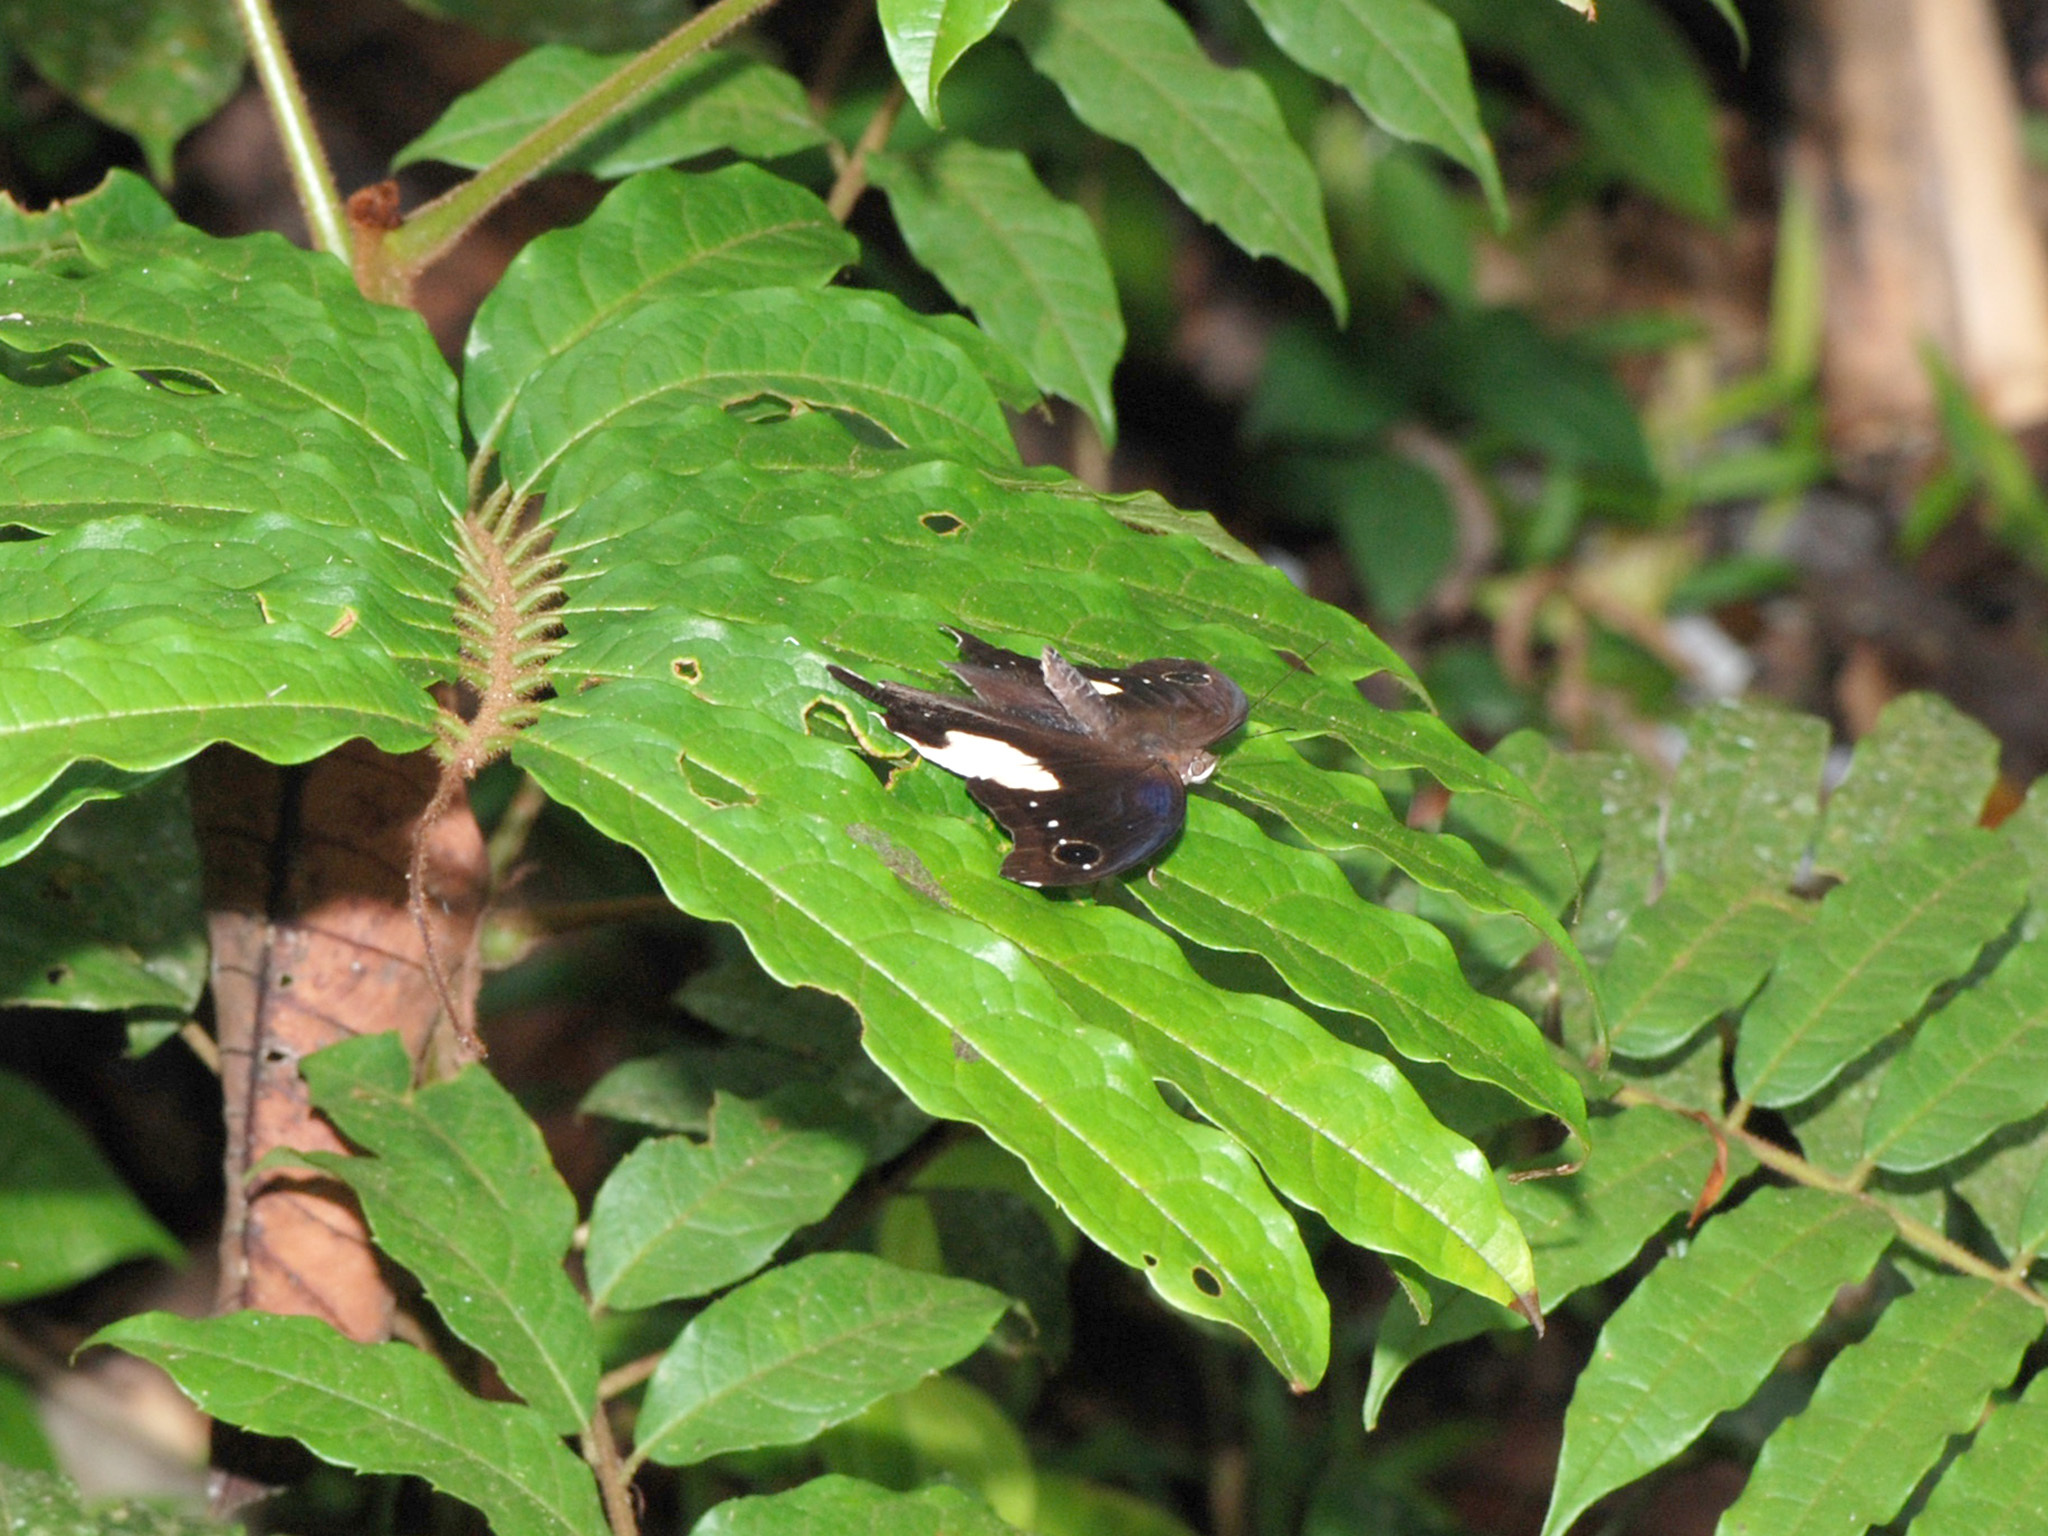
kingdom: Animalia
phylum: Arthropoda
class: Insecta
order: Lepidoptera
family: Nymphalidae
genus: Neorina
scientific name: Neorina lowii
